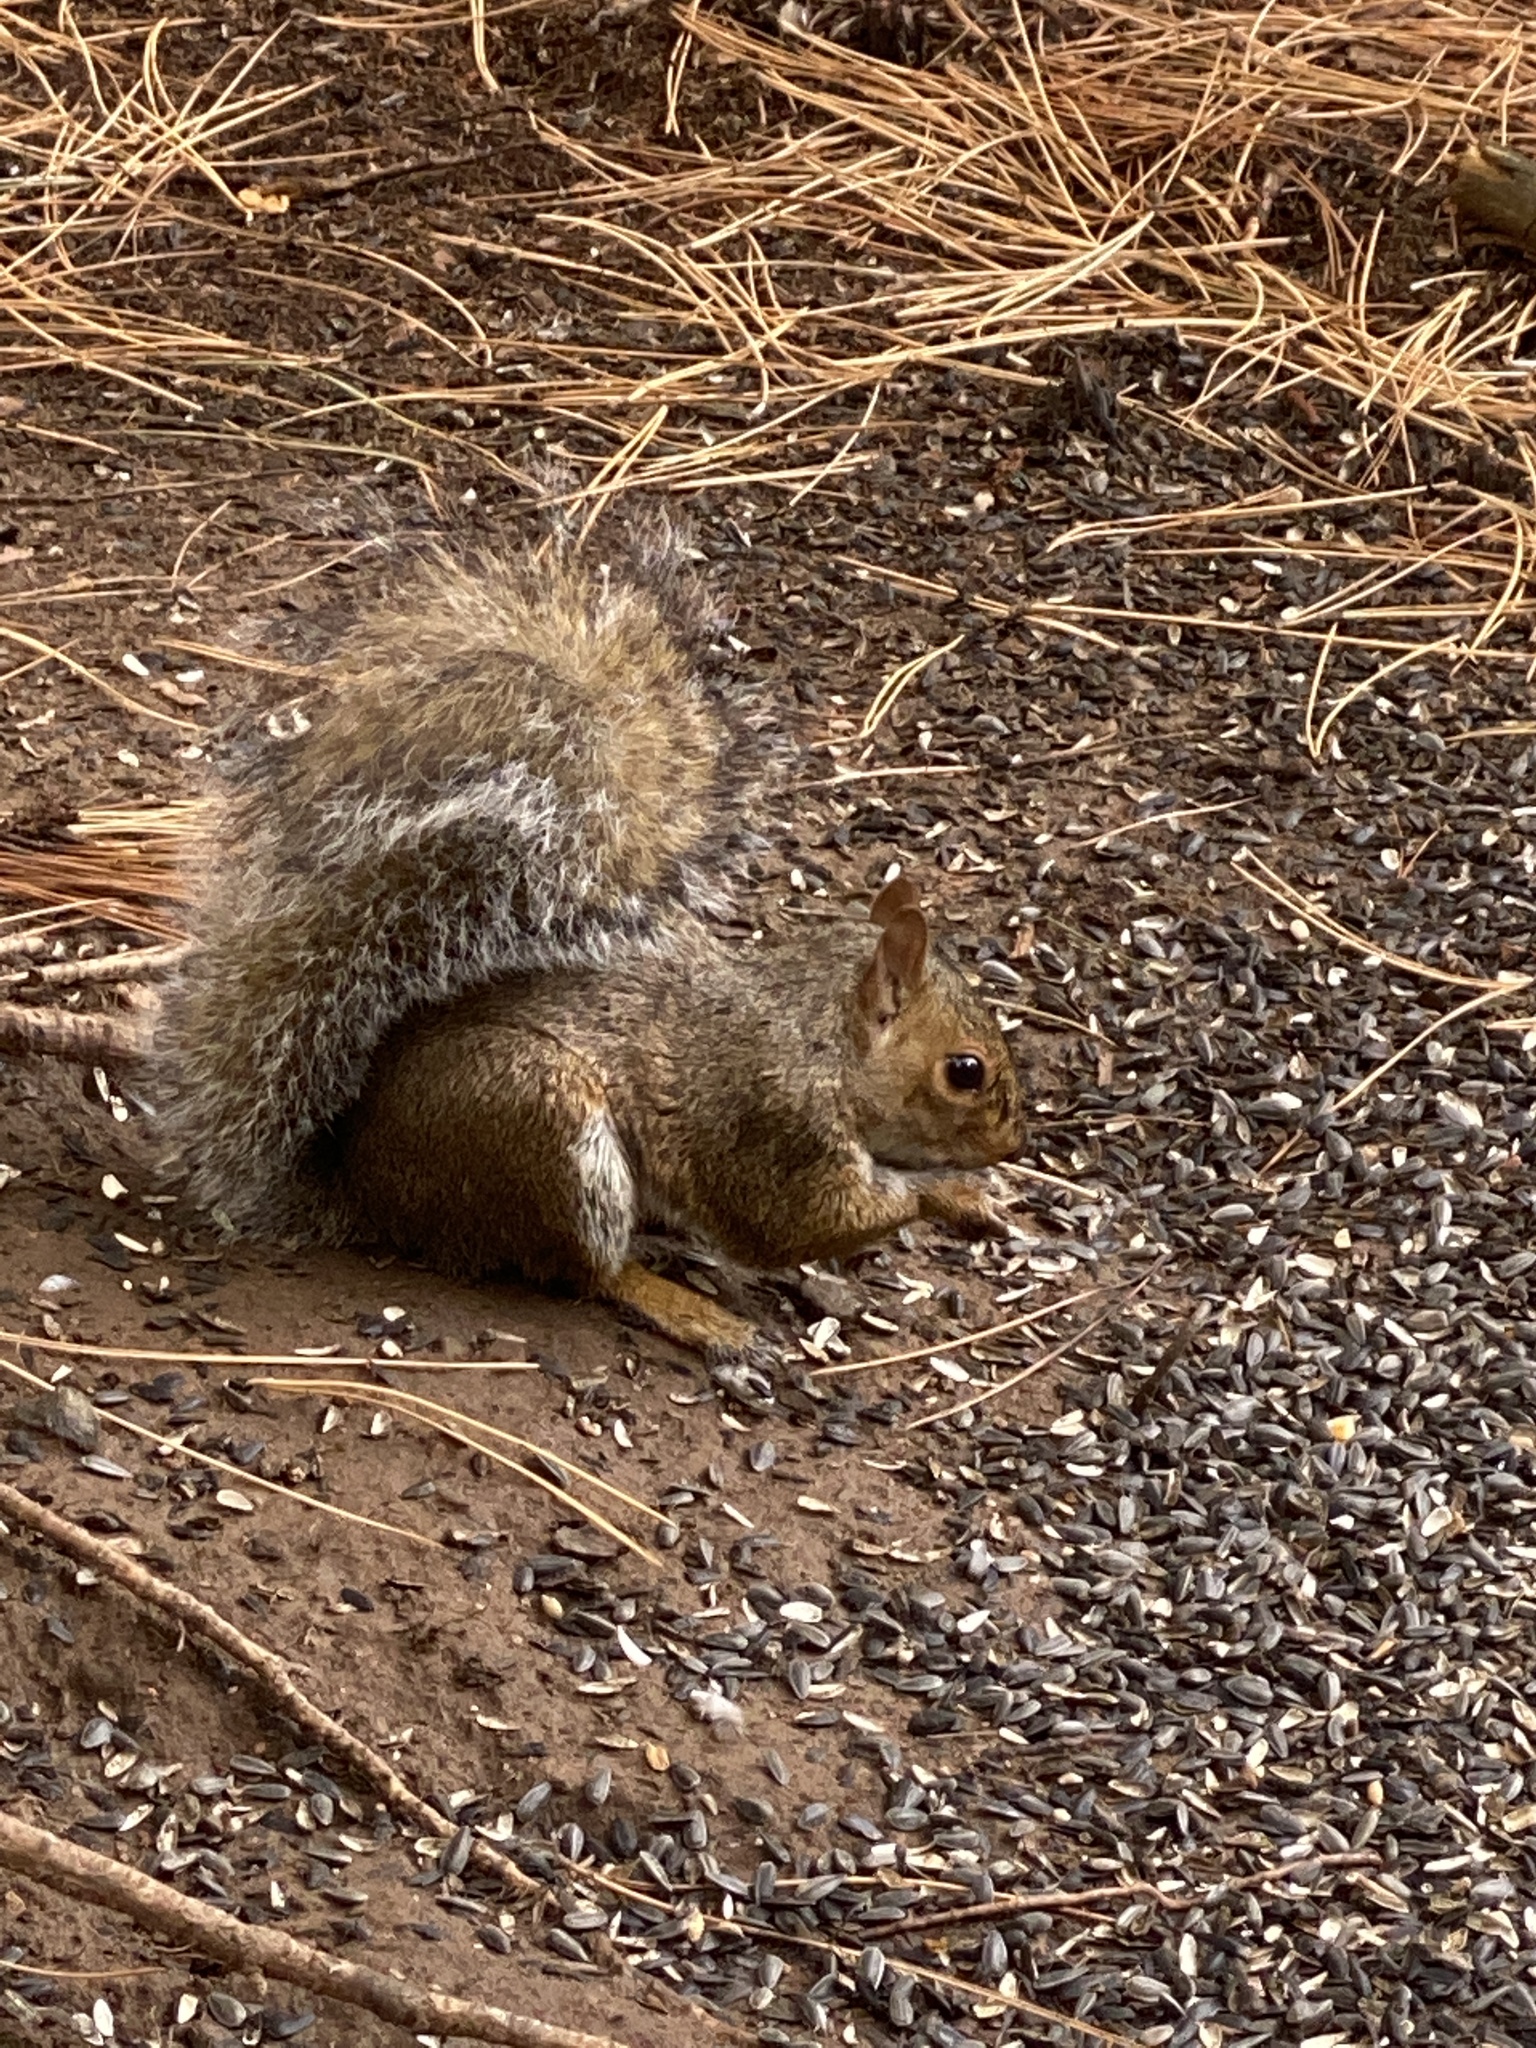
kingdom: Animalia
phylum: Chordata
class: Mammalia
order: Rodentia
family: Sciuridae
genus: Sciurus
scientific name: Sciurus carolinensis
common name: Eastern gray squirrel
